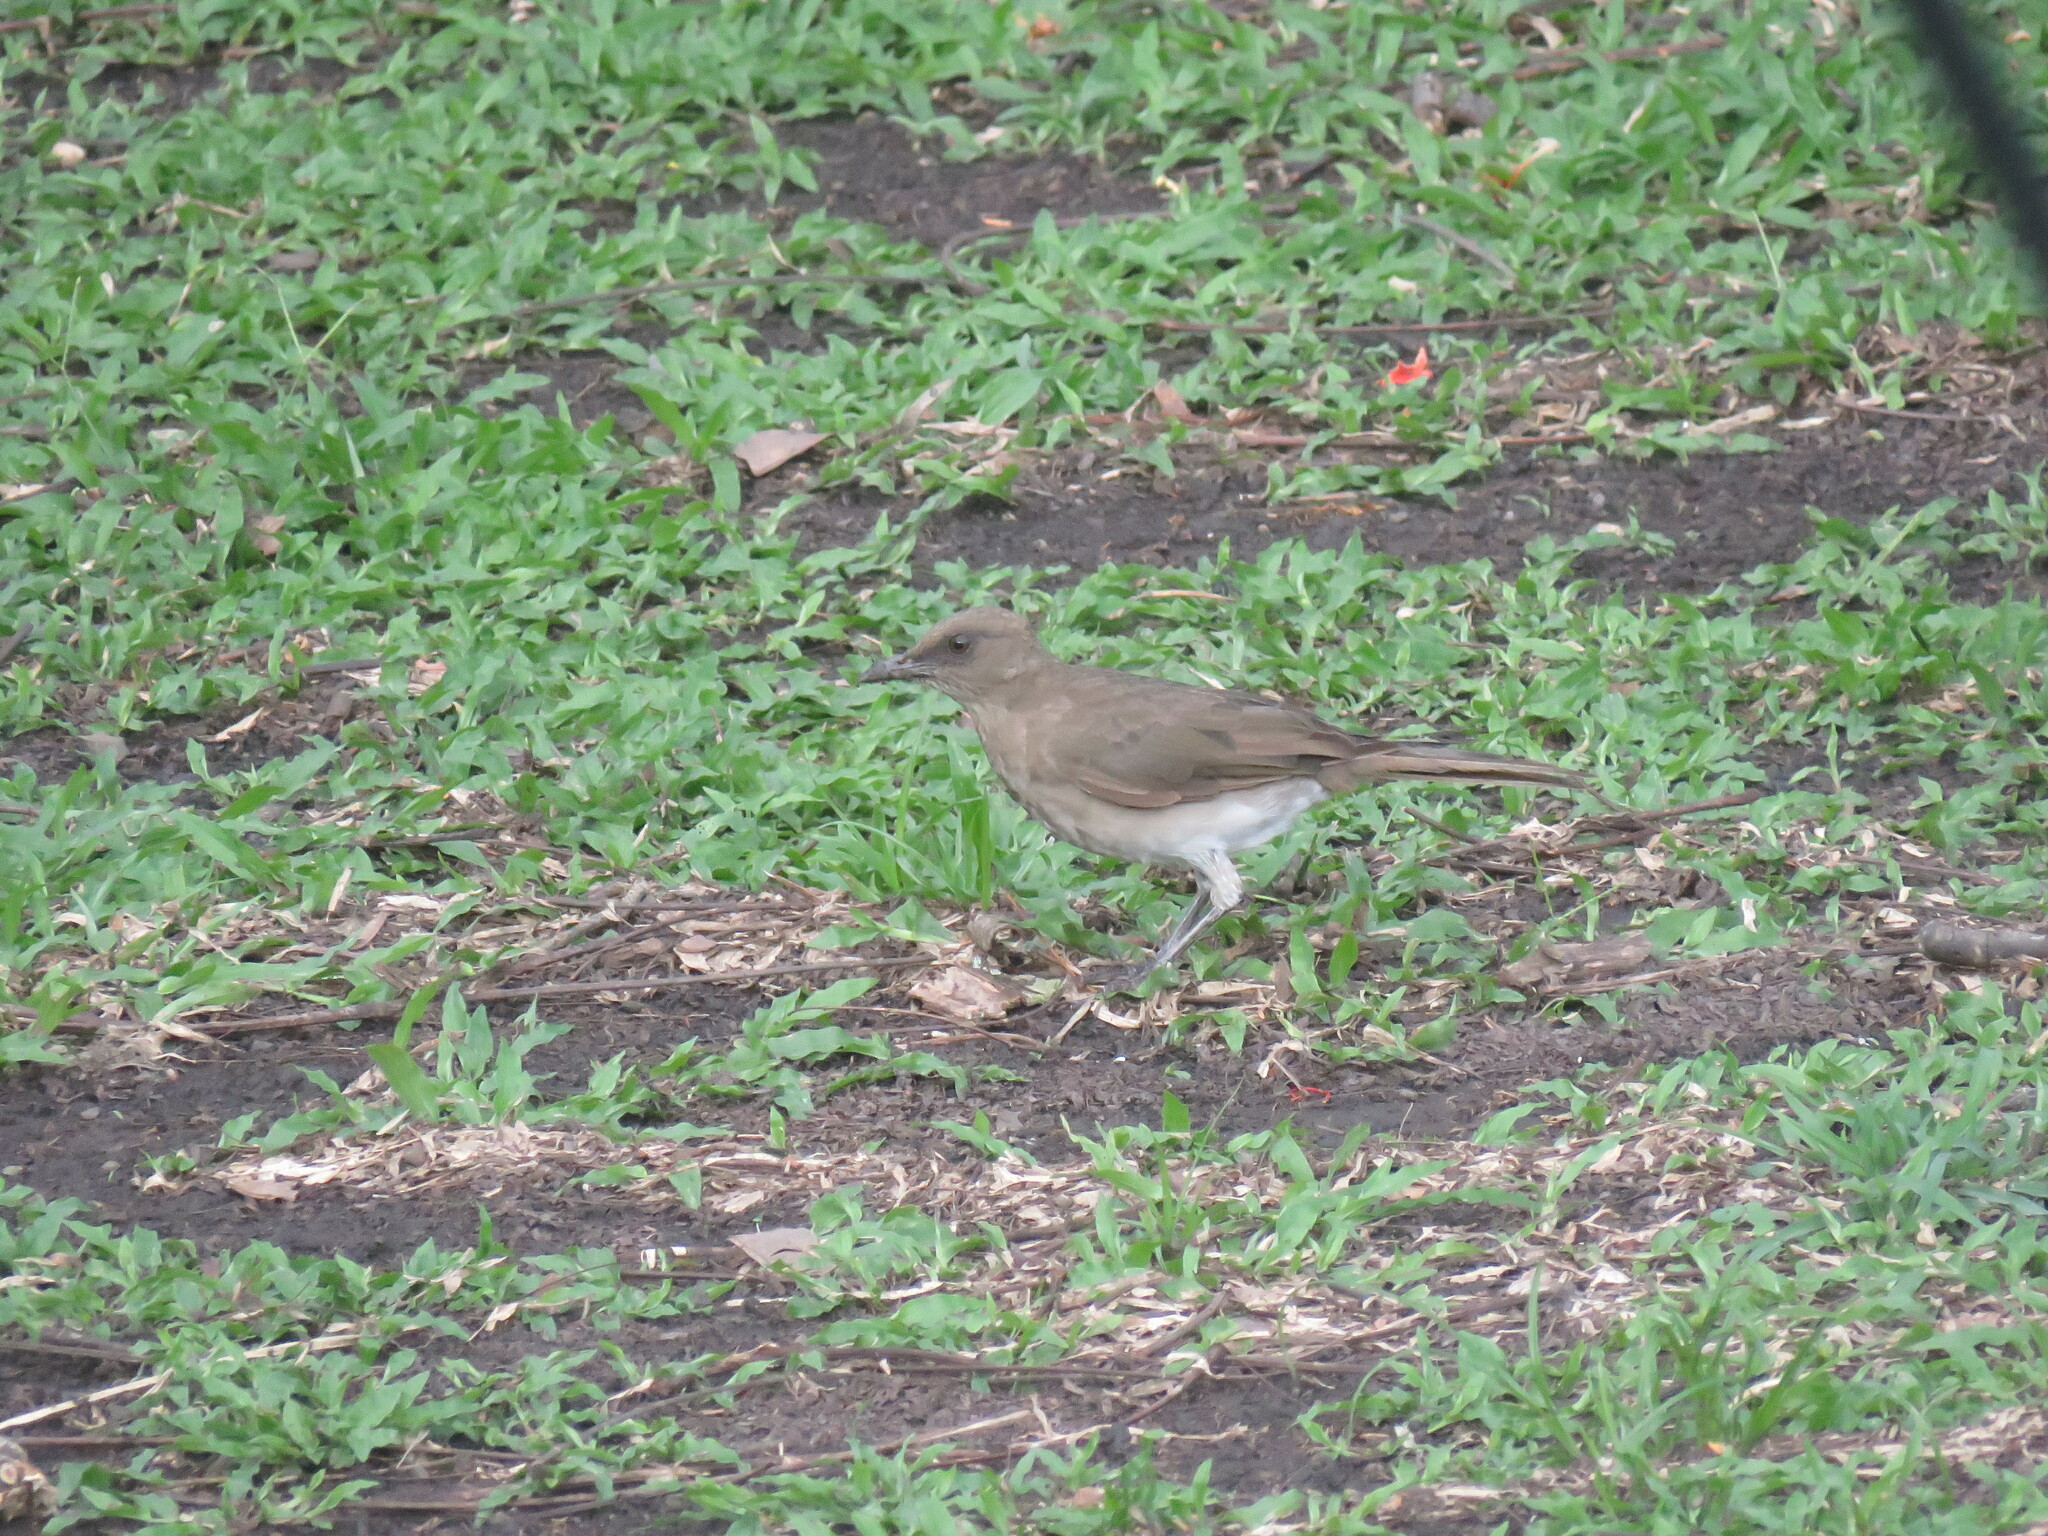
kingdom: Animalia
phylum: Chordata
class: Aves
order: Passeriformes
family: Turdidae
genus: Turdus
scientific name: Turdus ignobilis
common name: Black-billed thrush
